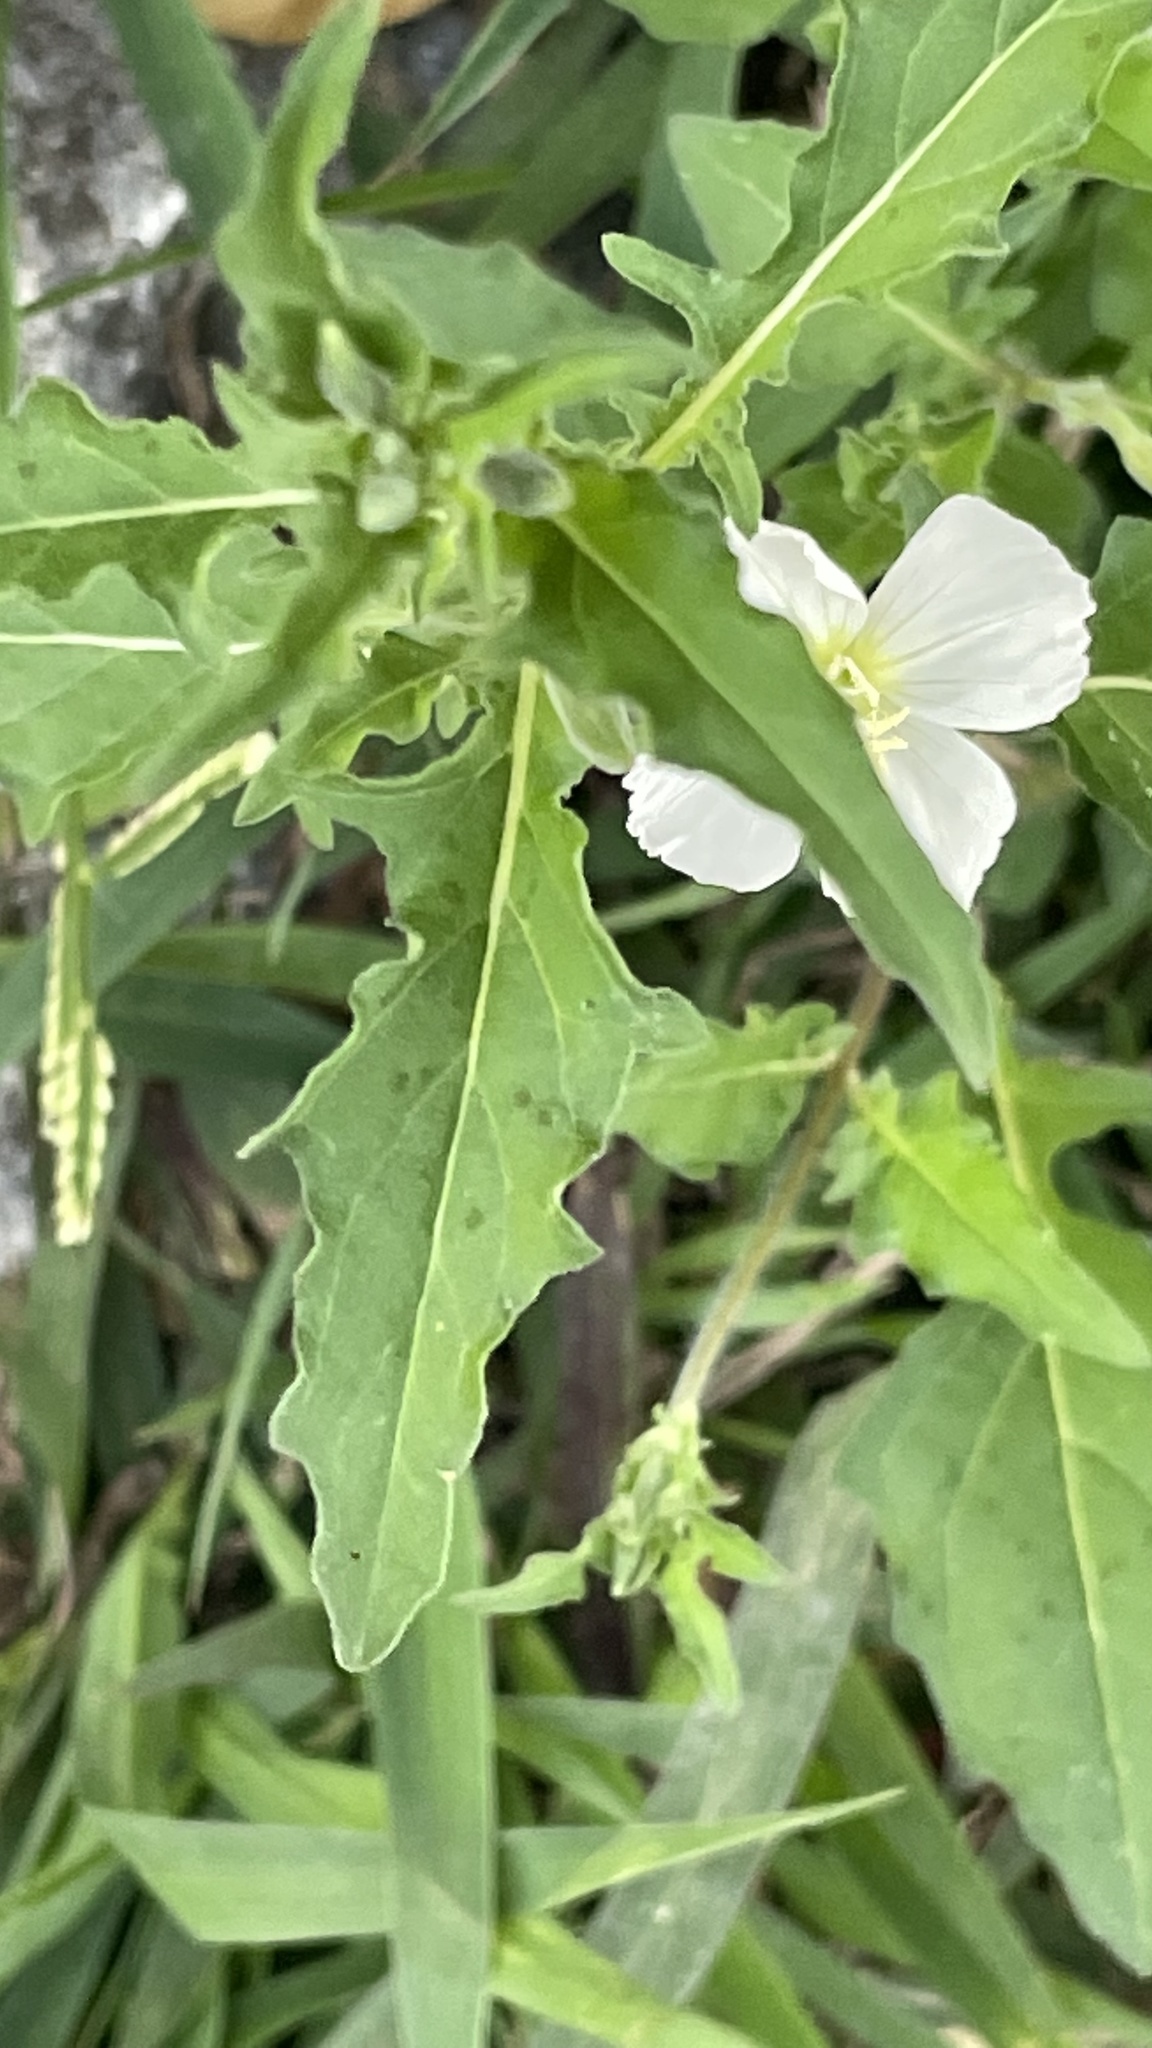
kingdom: Plantae
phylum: Tracheophyta
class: Magnoliopsida
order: Myrtales
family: Onagraceae
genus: Oenothera
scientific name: Oenothera tetraptera
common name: Four-wing evening-primrose
